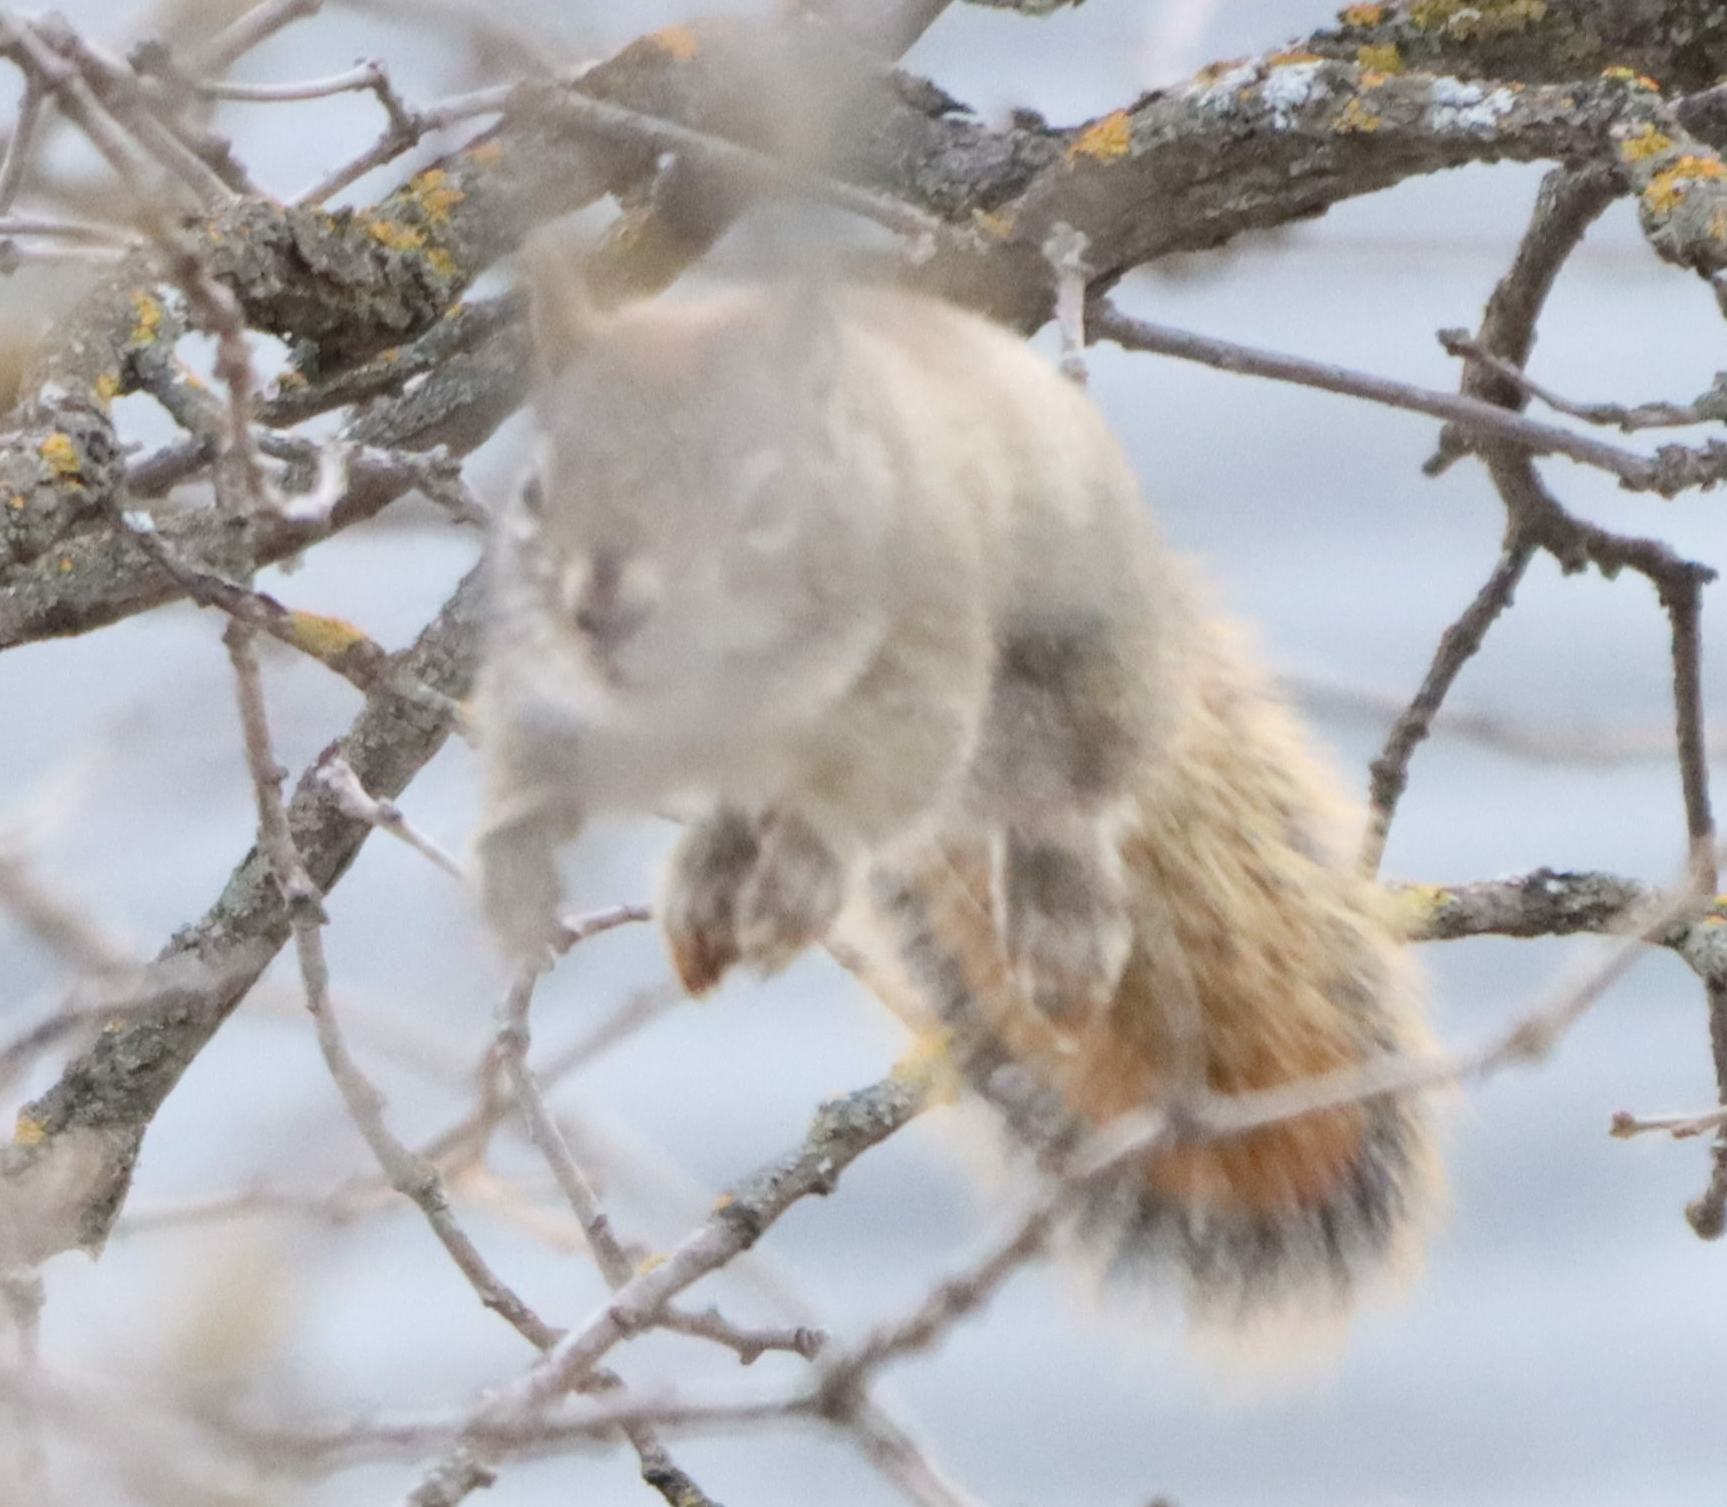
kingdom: Animalia
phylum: Chordata
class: Mammalia
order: Rodentia
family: Sciuridae
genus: Tamiasciurus
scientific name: Tamiasciurus hudsonicus
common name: Red squirrel
